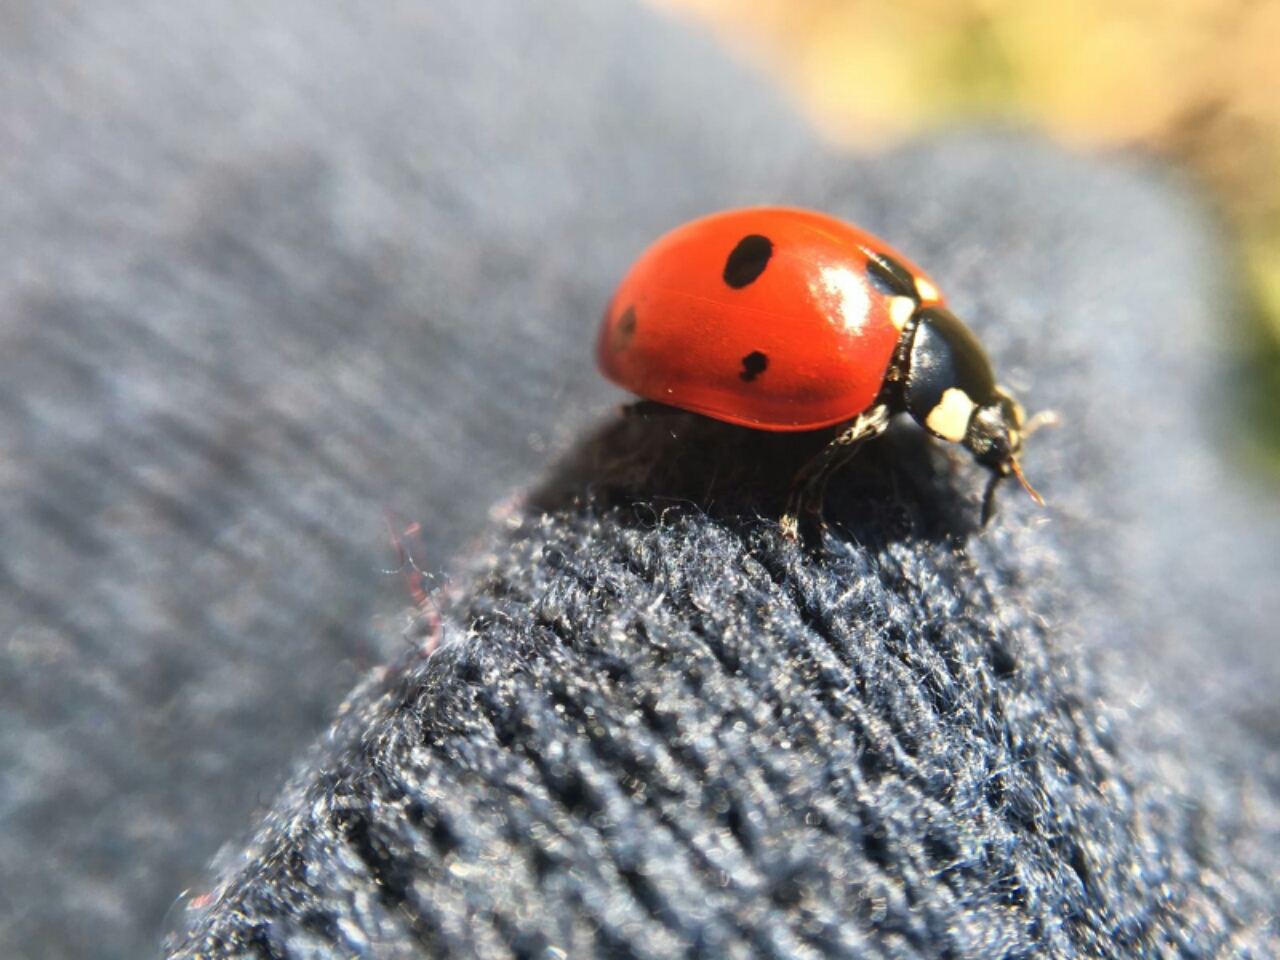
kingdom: Animalia
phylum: Arthropoda
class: Insecta
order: Coleoptera
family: Coccinellidae
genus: Coccinella
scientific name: Coccinella septempunctata
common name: Sevenspotted lady beetle
